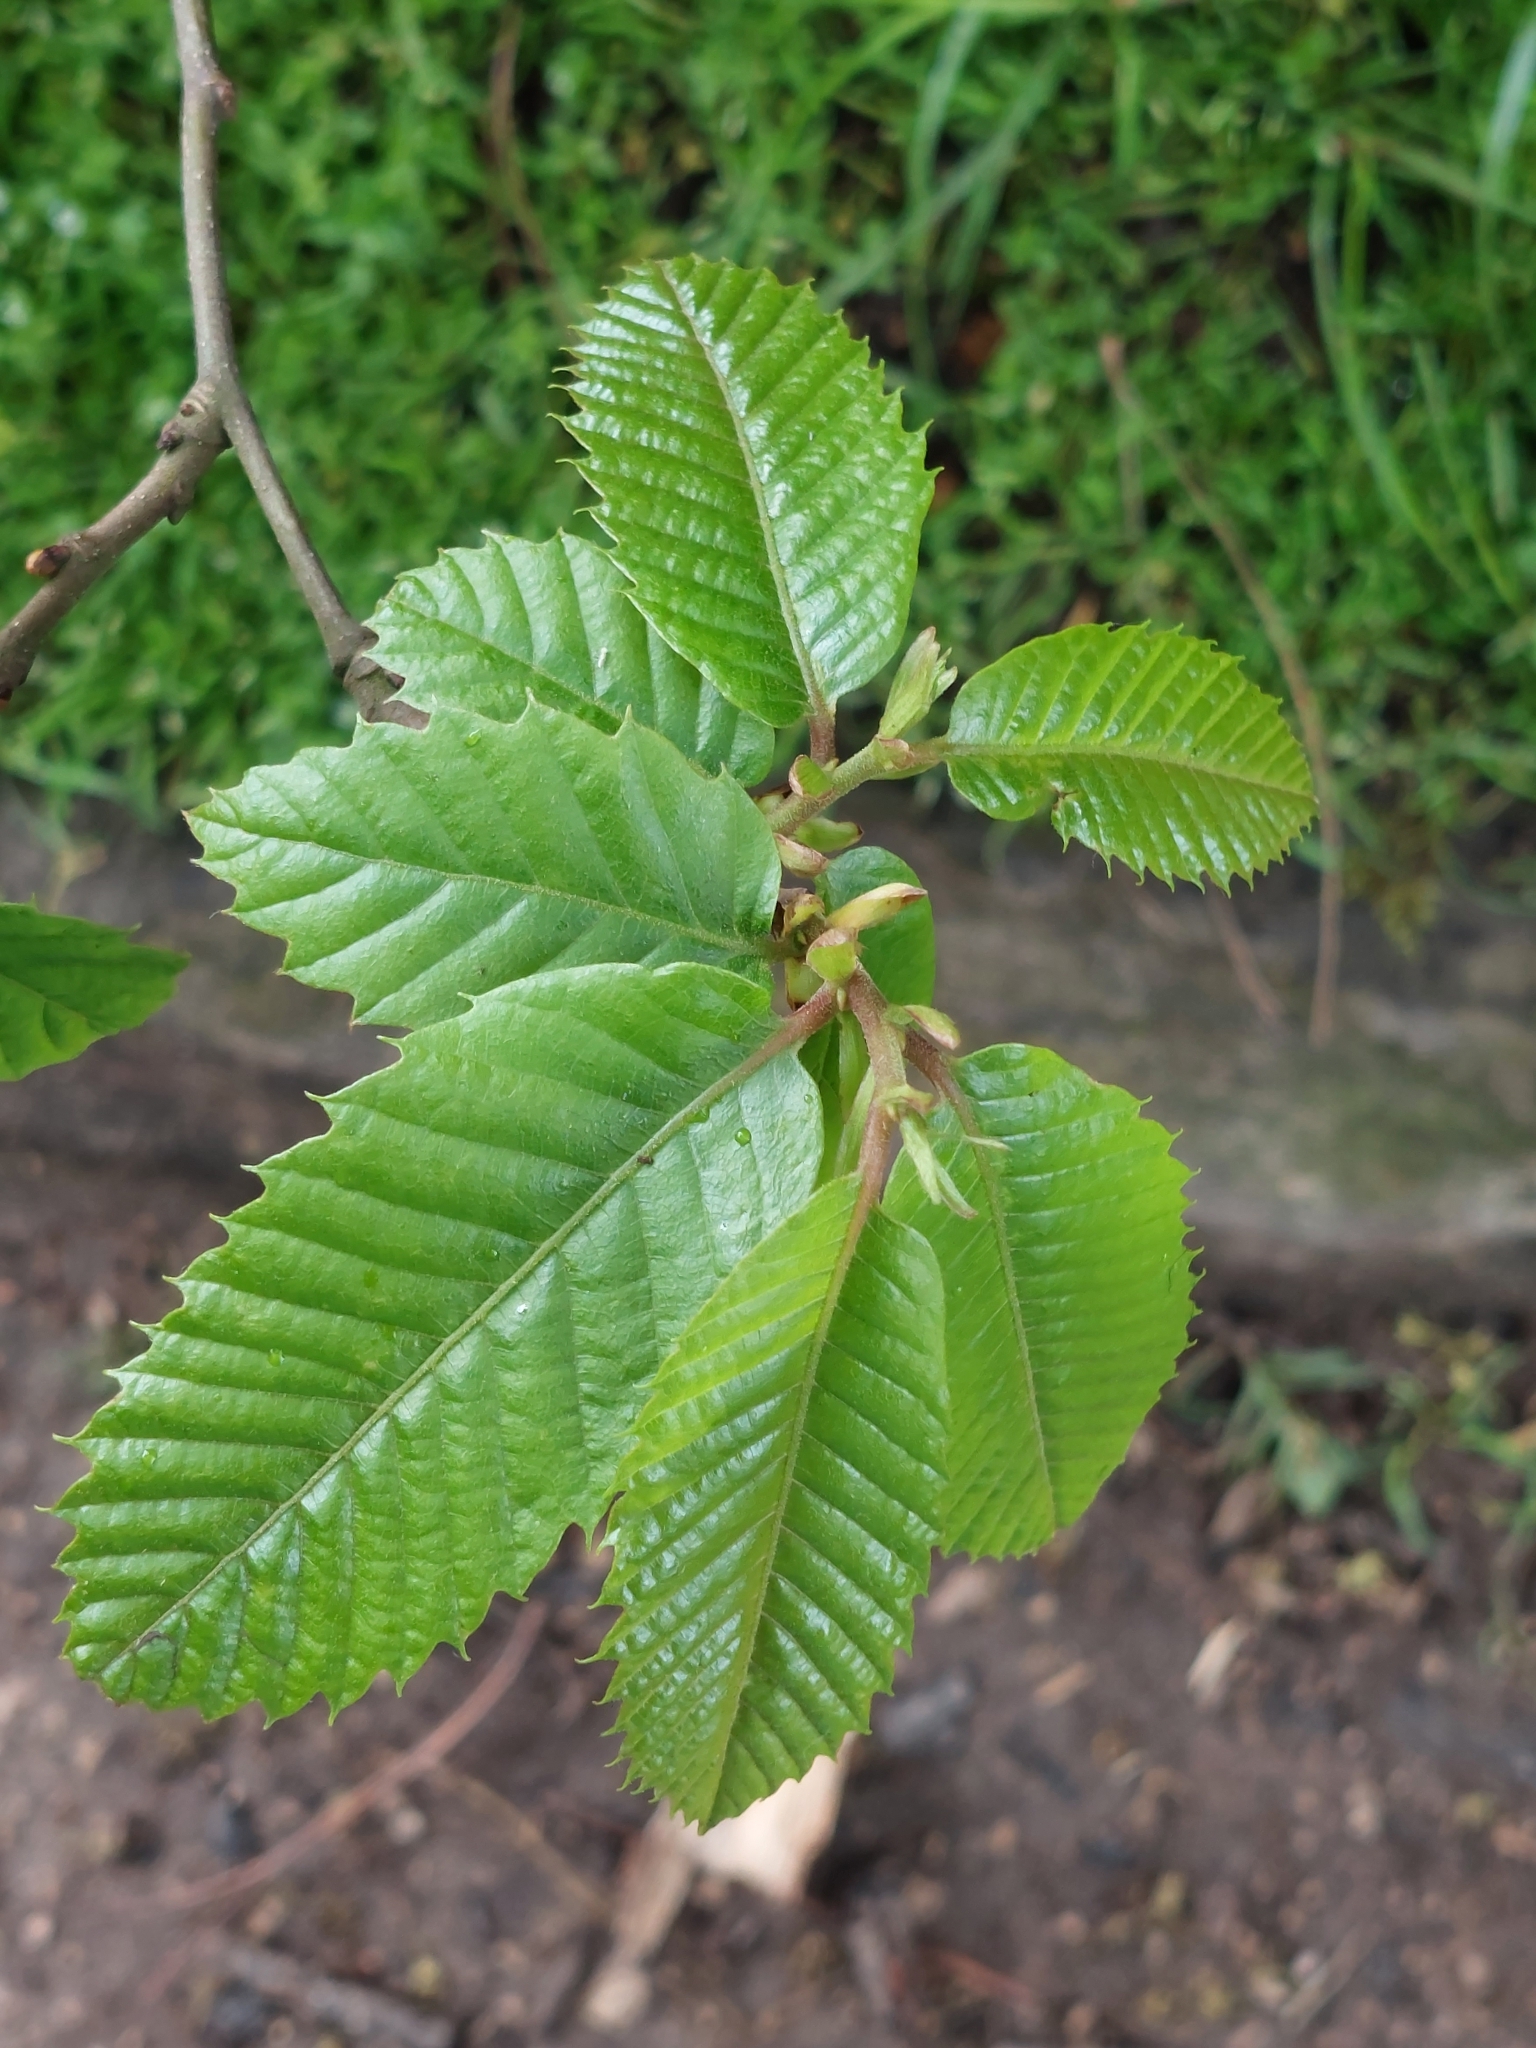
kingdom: Plantae
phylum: Tracheophyta
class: Magnoliopsida
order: Fagales
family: Fagaceae
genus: Castanea
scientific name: Castanea sativa
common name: Sweet chestnut
